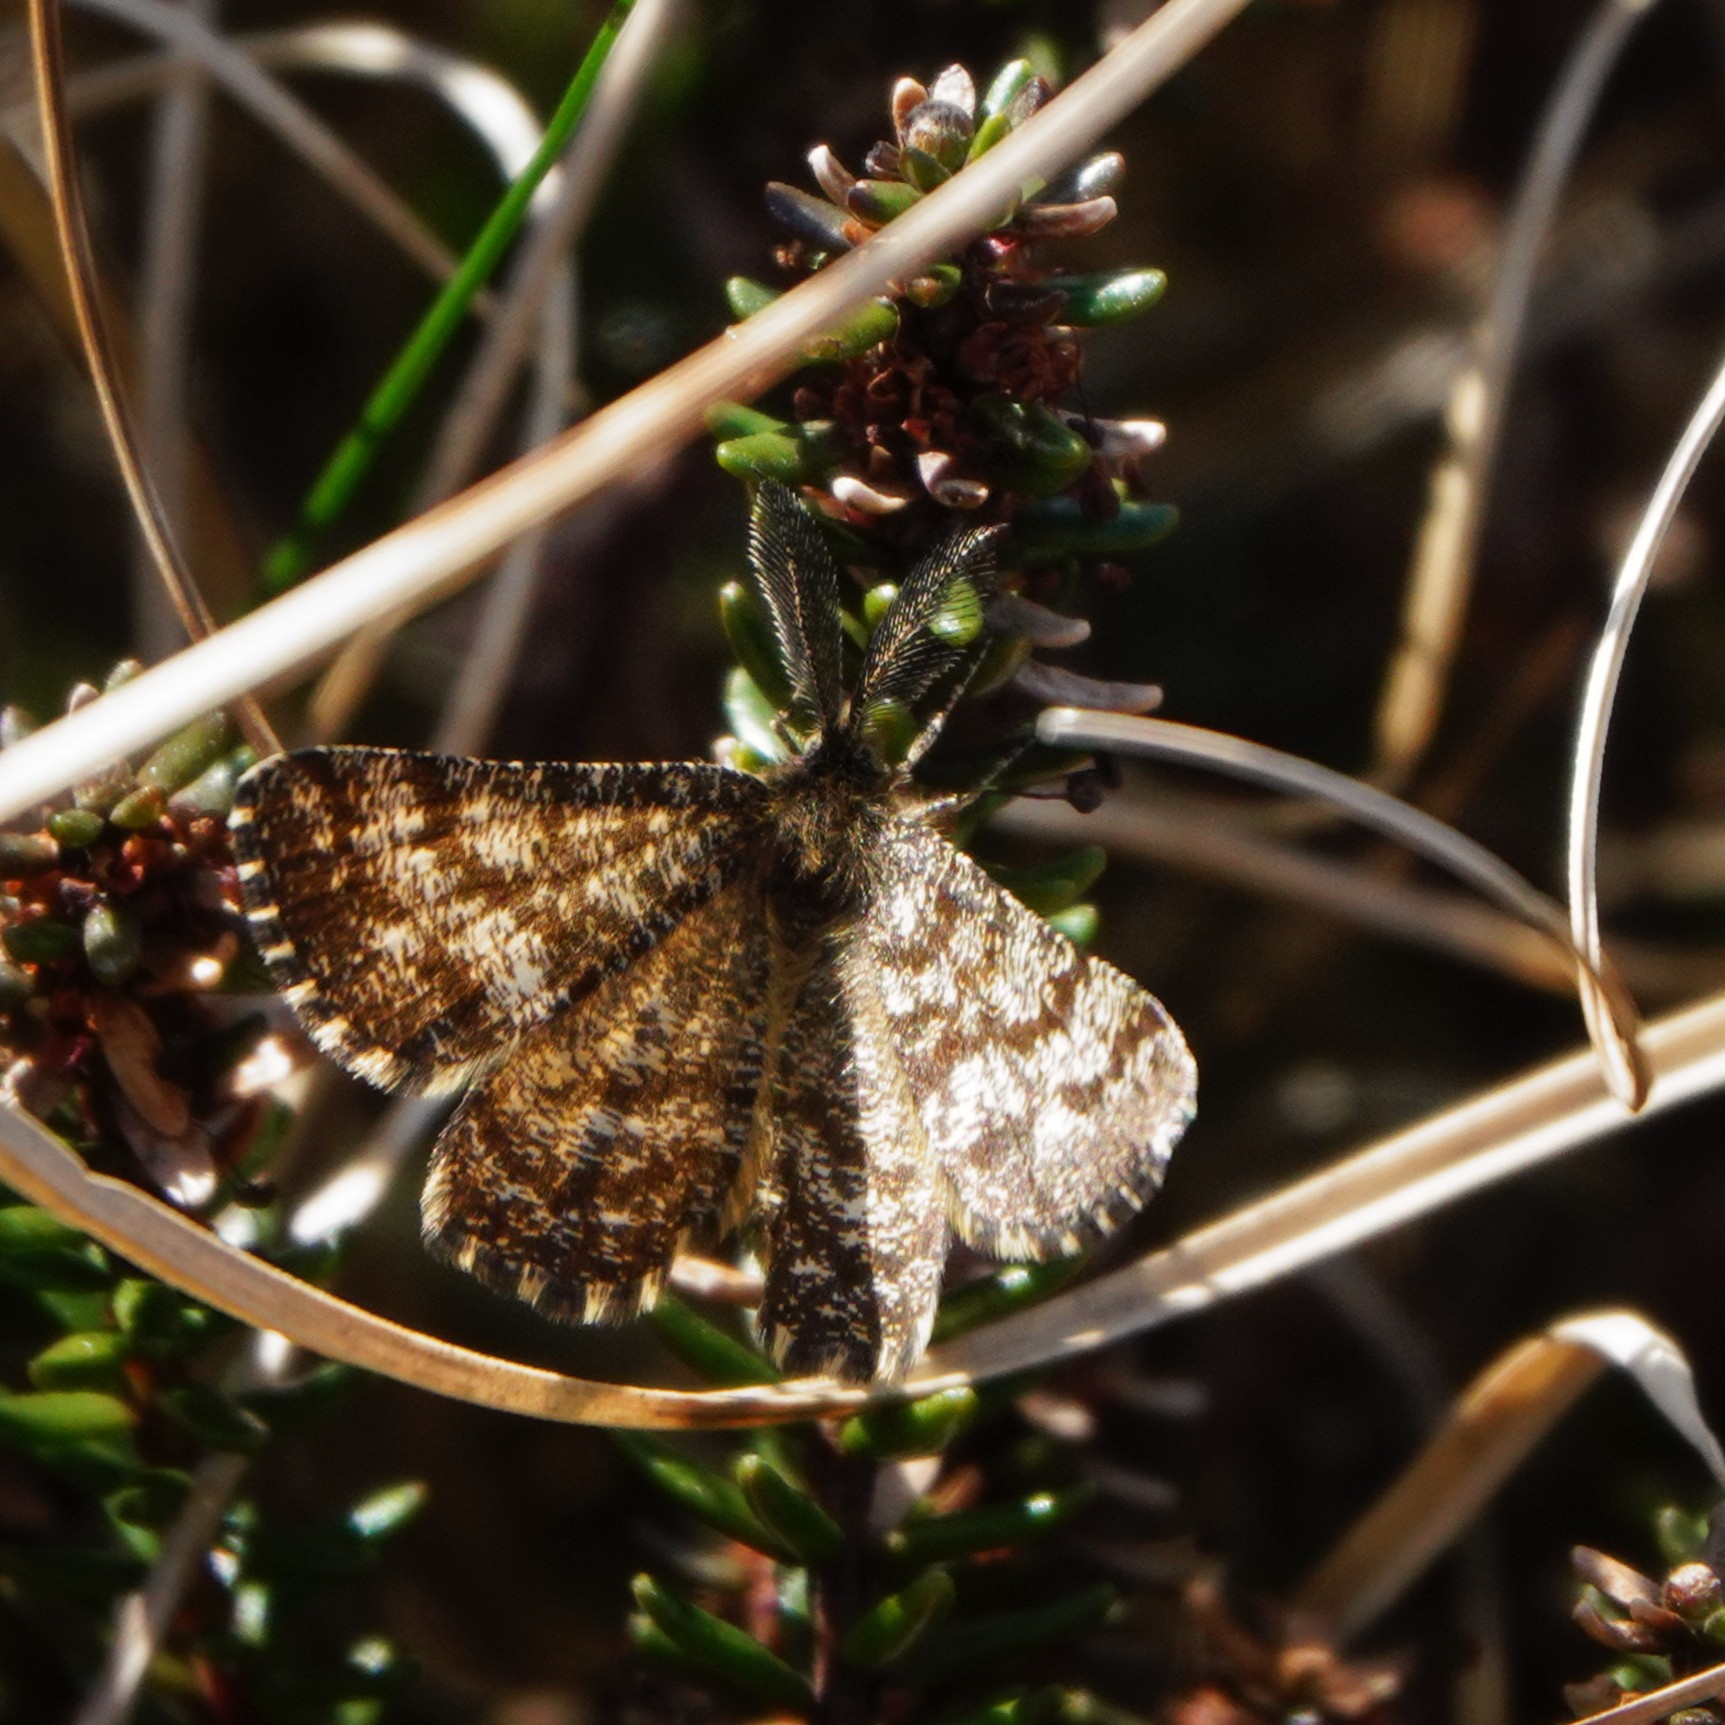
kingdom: Animalia
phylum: Arthropoda
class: Insecta
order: Lepidoptera
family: Geometridae
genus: Ematurga
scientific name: Ematurga atomaria
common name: Common heath
